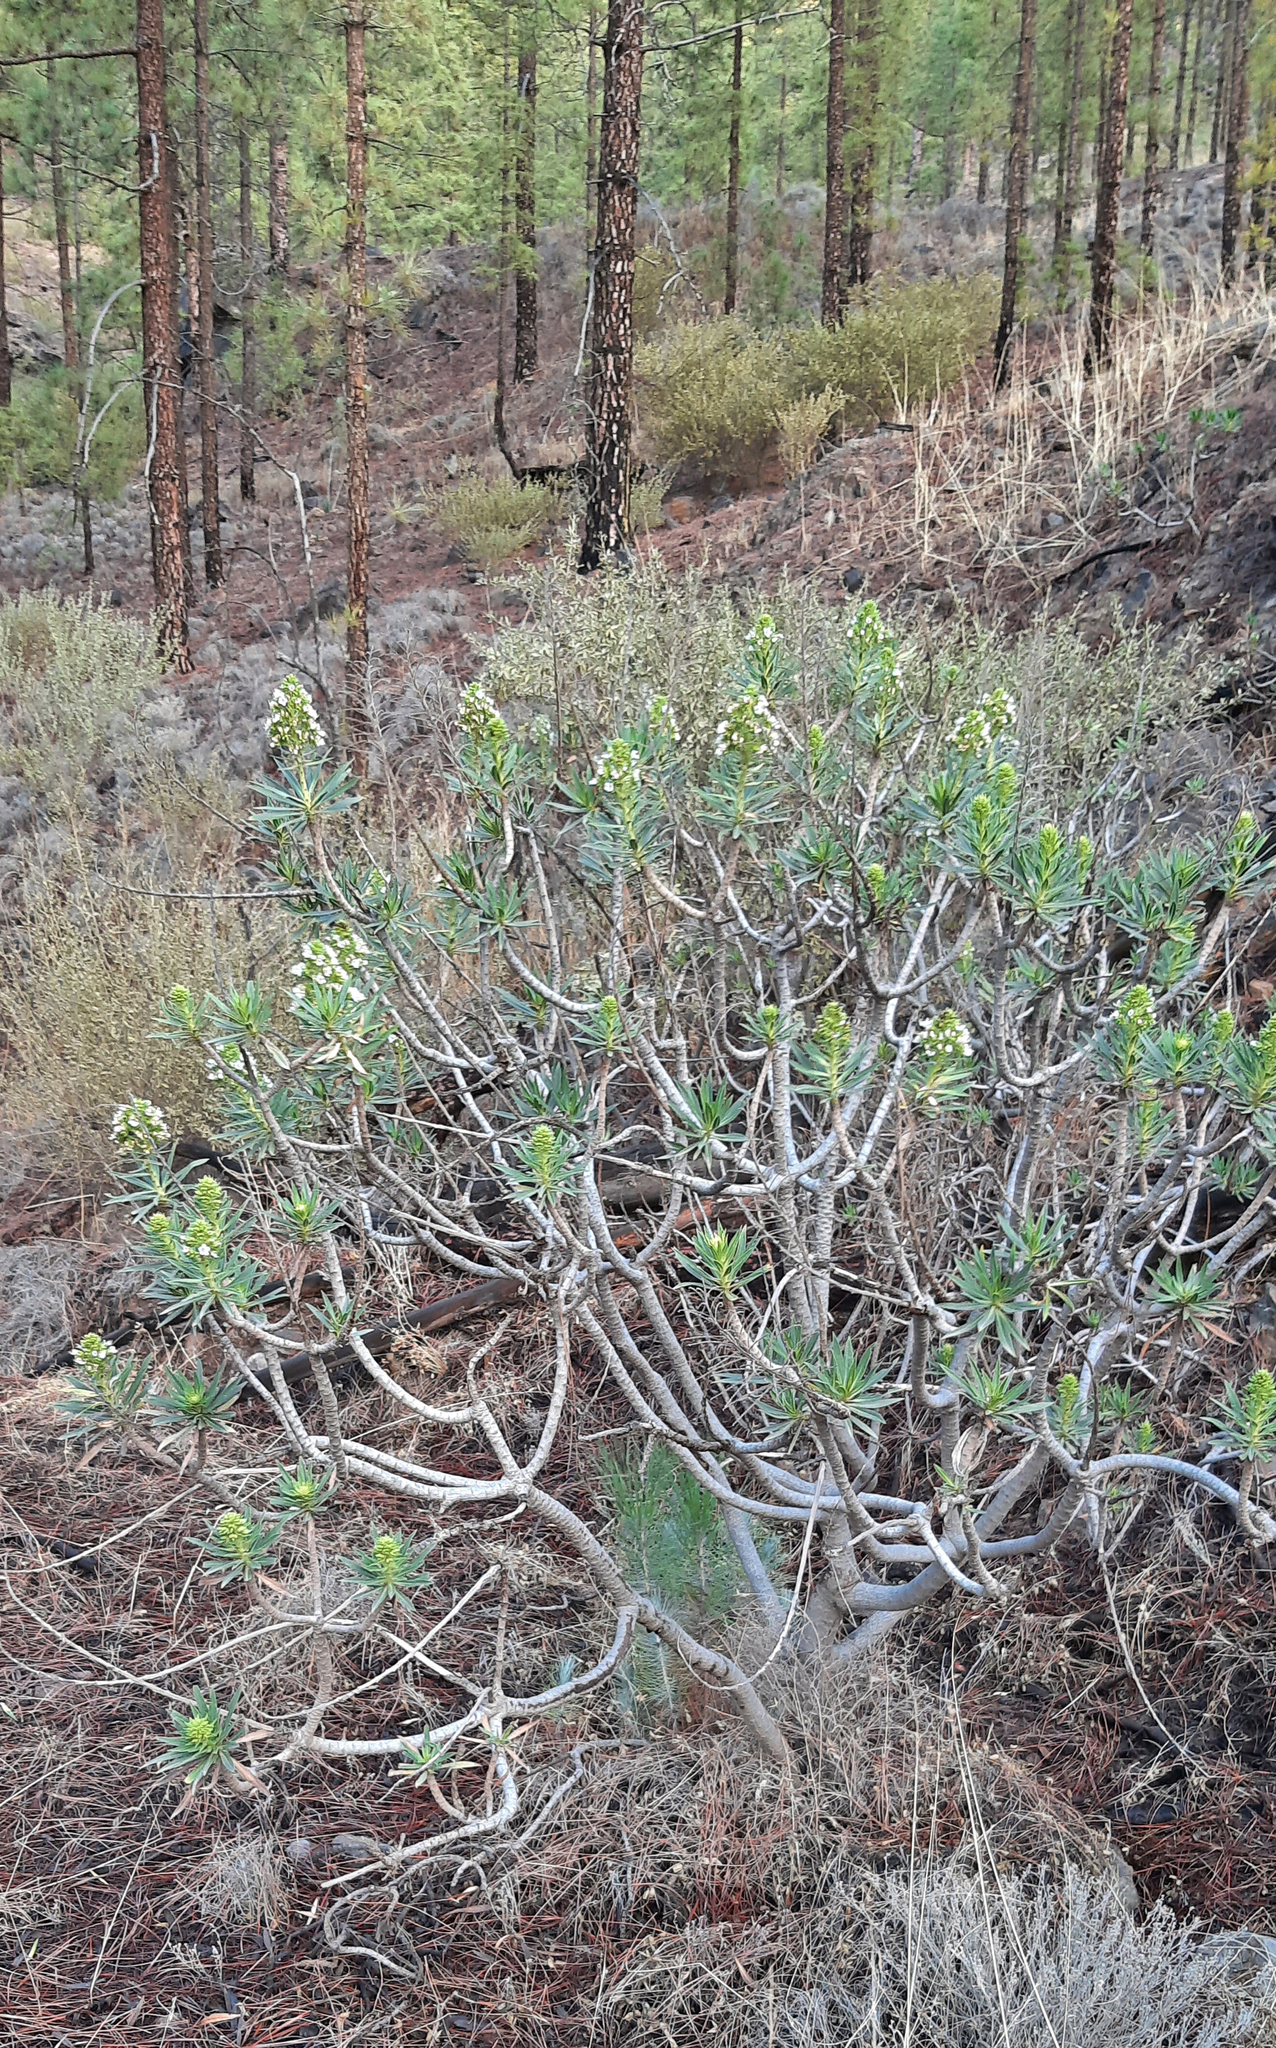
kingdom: Plantae
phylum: Tracheophyta
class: Magnoliopsida
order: Boraginales
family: Boraginaceae
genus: Echium
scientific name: Echium decaisnei
